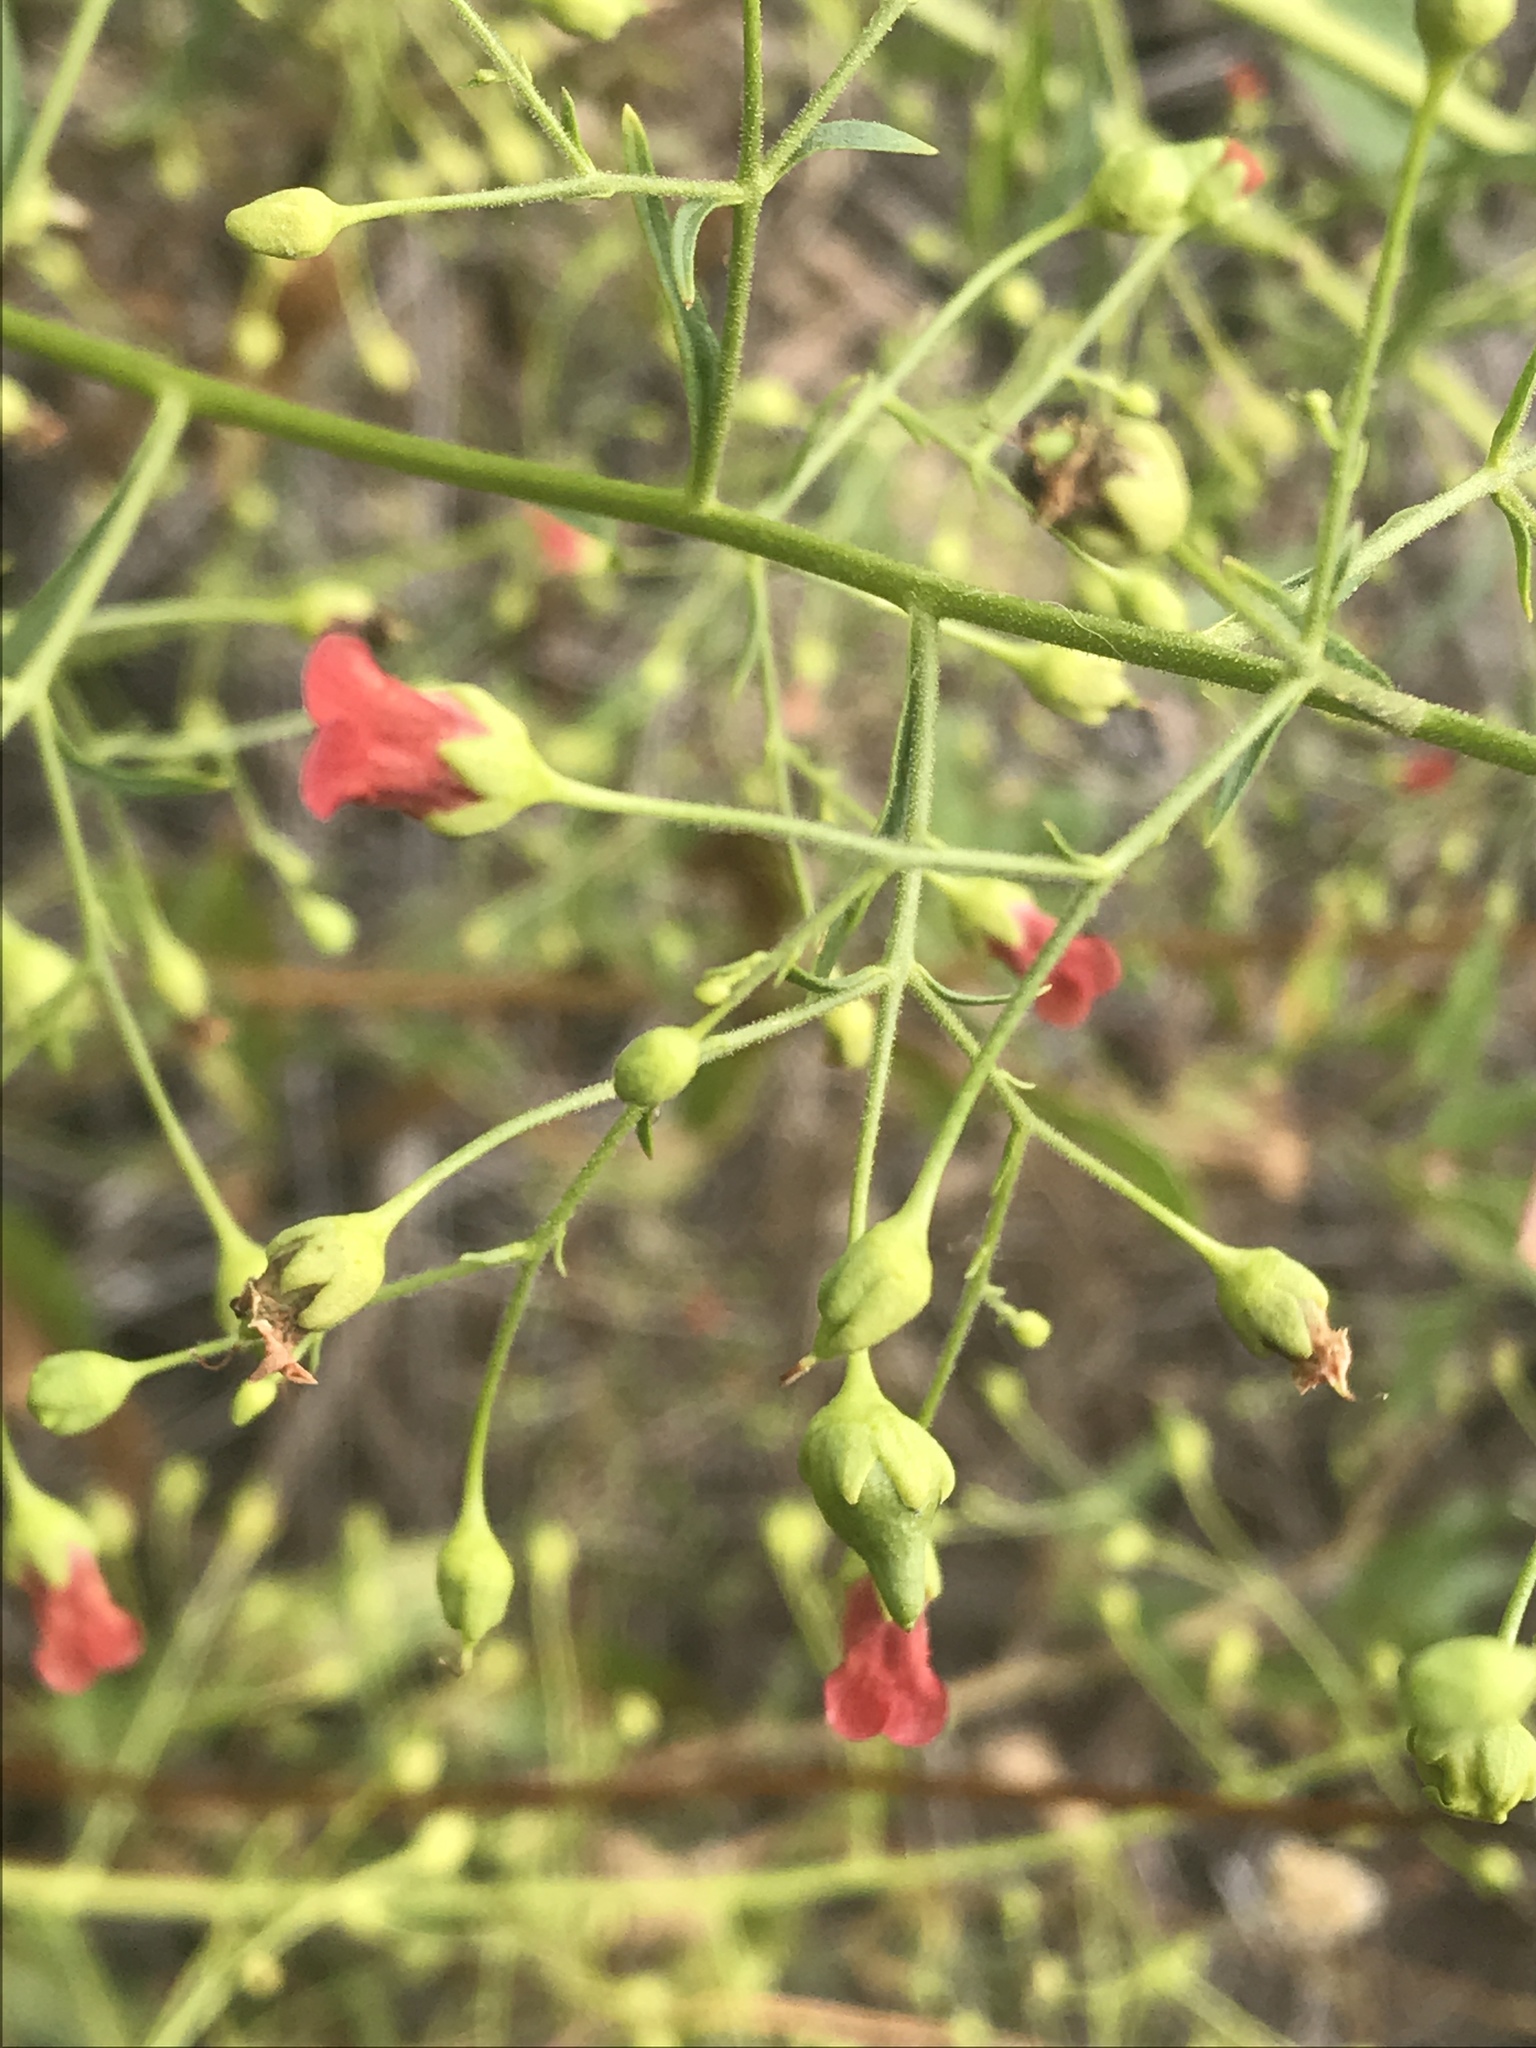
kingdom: Plantae
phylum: Tracheophyta
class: Magnoliopsida
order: Lamiales
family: Scrophulariaceae
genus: Scrophularia
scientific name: Scrophularia californica
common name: California figwort
